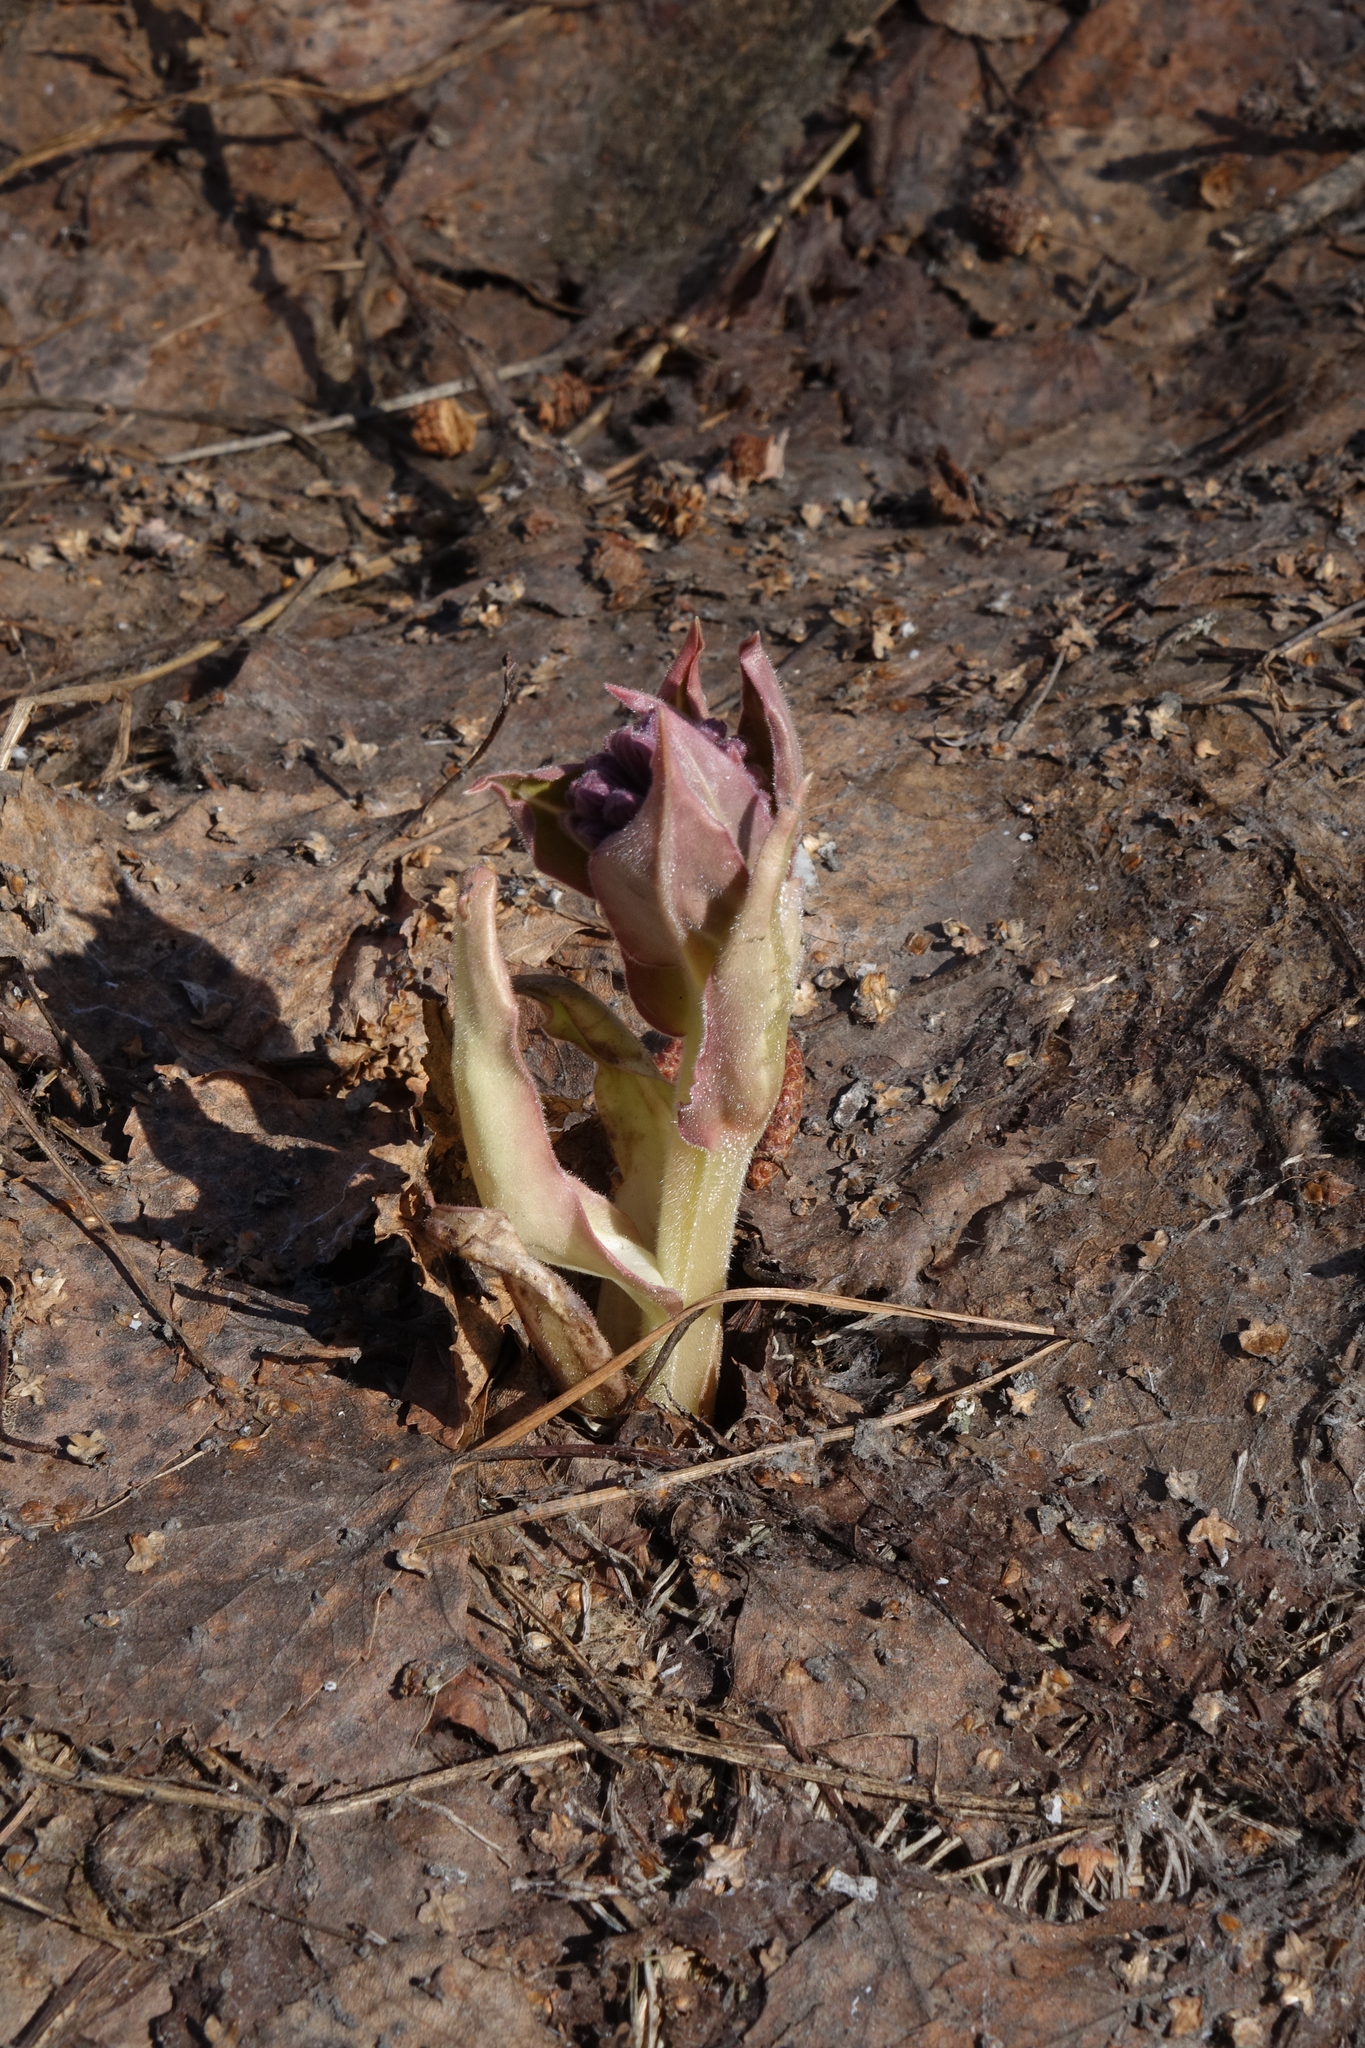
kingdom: Plantae
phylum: Tracheophyta
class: Magnoliopsida
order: Boraginales
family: Boraginaceae
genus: Pulmonaria
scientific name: Pulmonaria mollis
